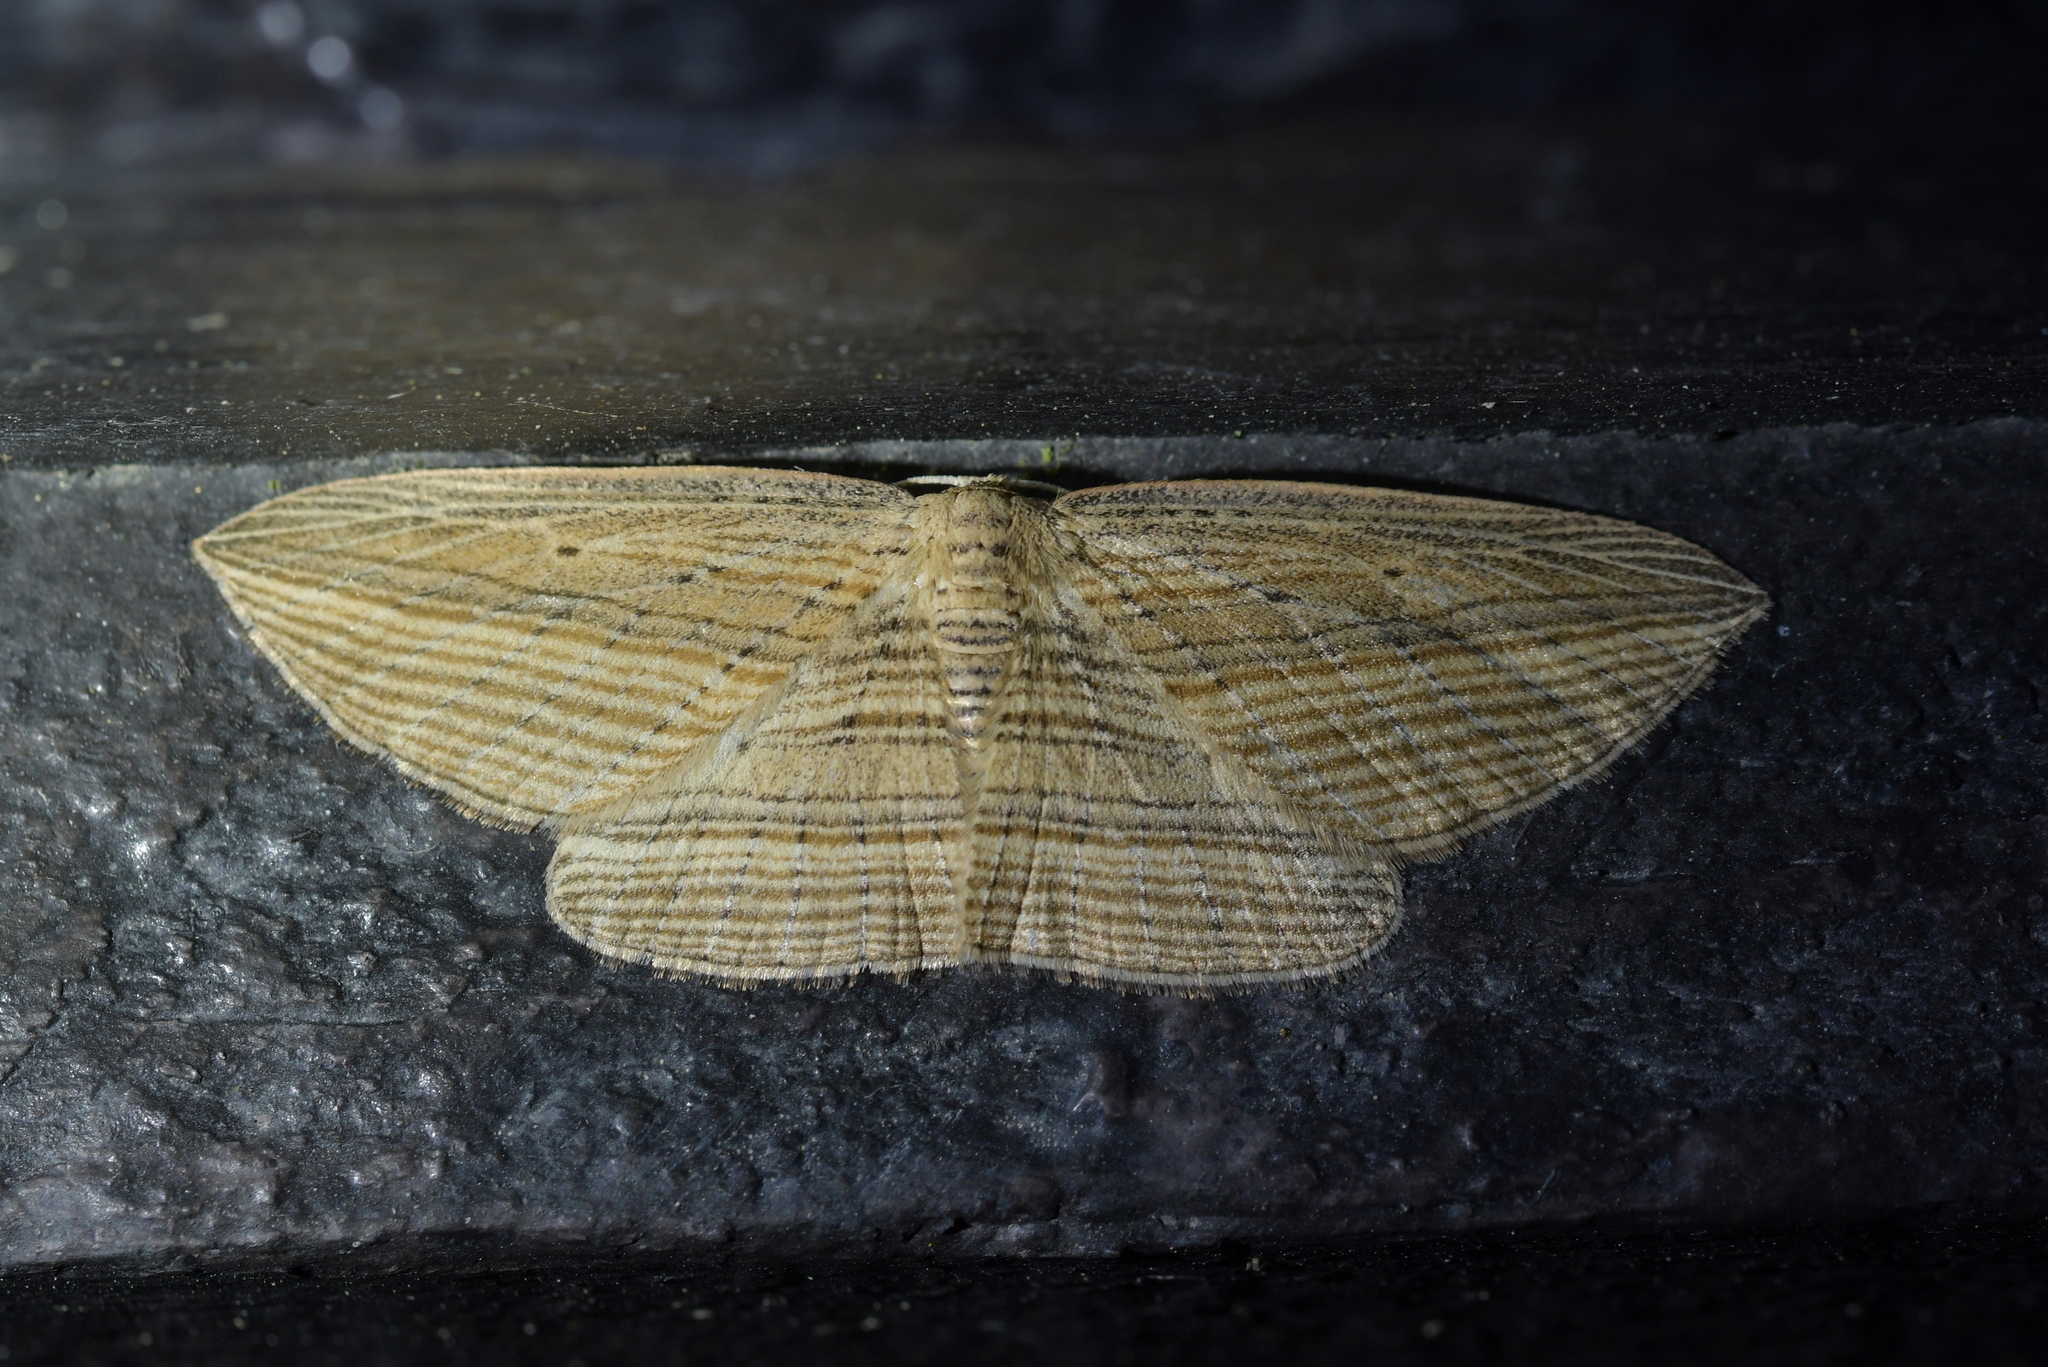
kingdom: Animalia
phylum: Arthropoda
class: Insecta
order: Lepidoptera
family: Geometridae
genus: Epiphryne
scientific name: Epiphryne verriculata
